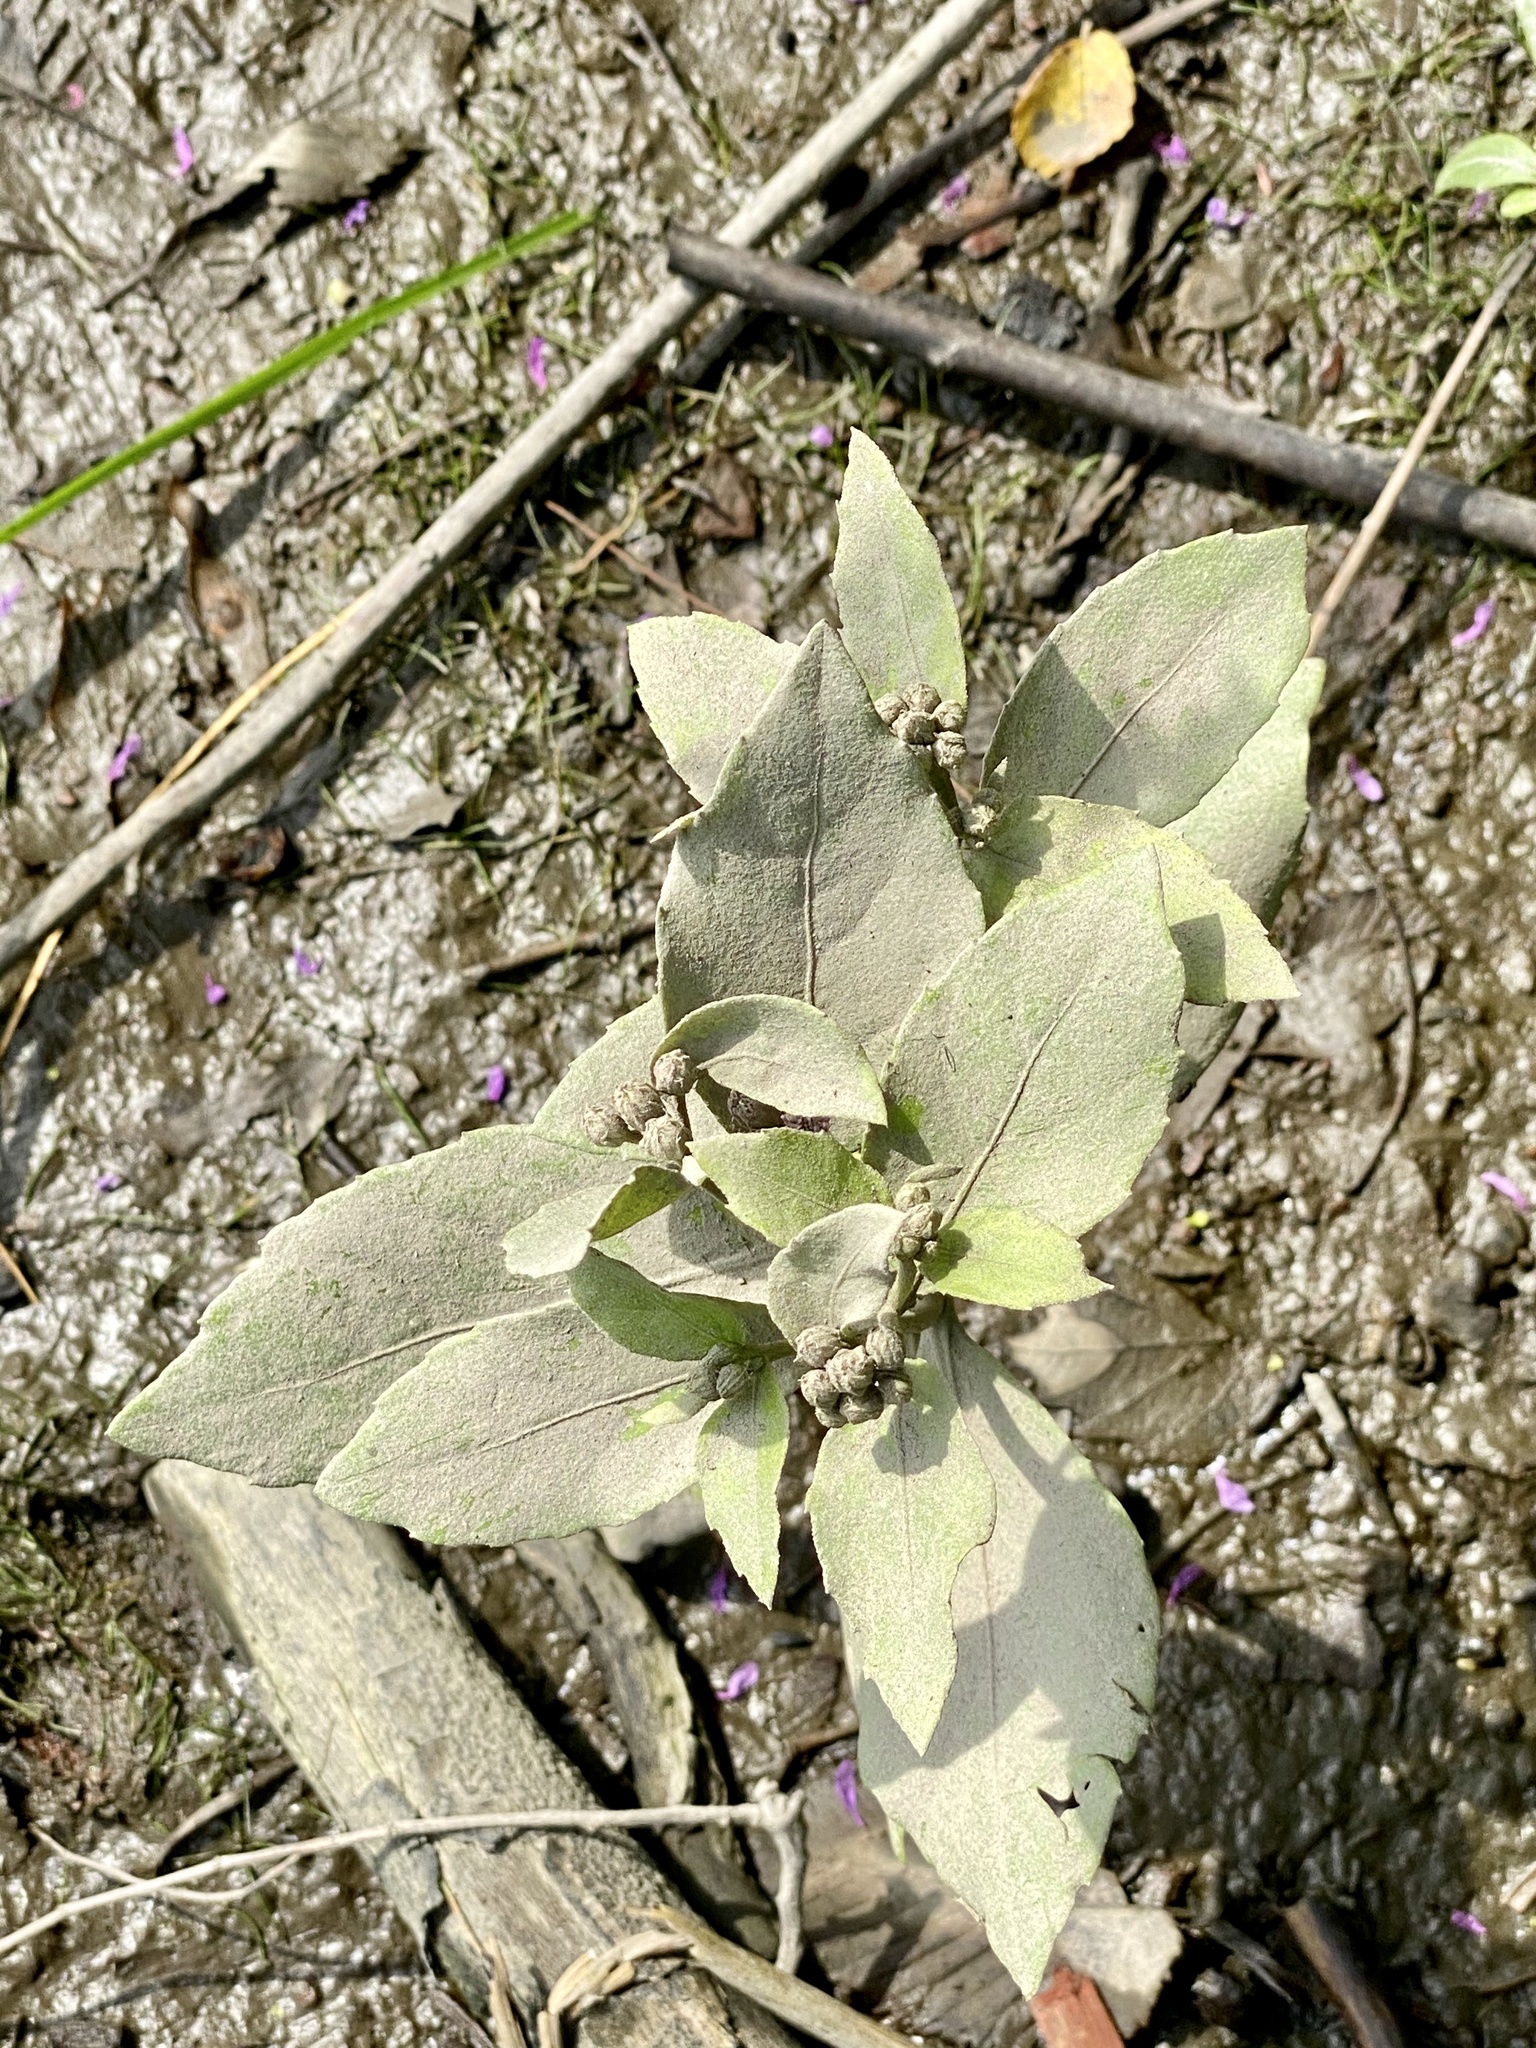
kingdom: Plantae
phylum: Tracheophyta
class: Magnoliopsida
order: Asterales
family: Asteraceae
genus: Pluchea
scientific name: Pluchea odorata
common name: Saltmarsh fleabane
